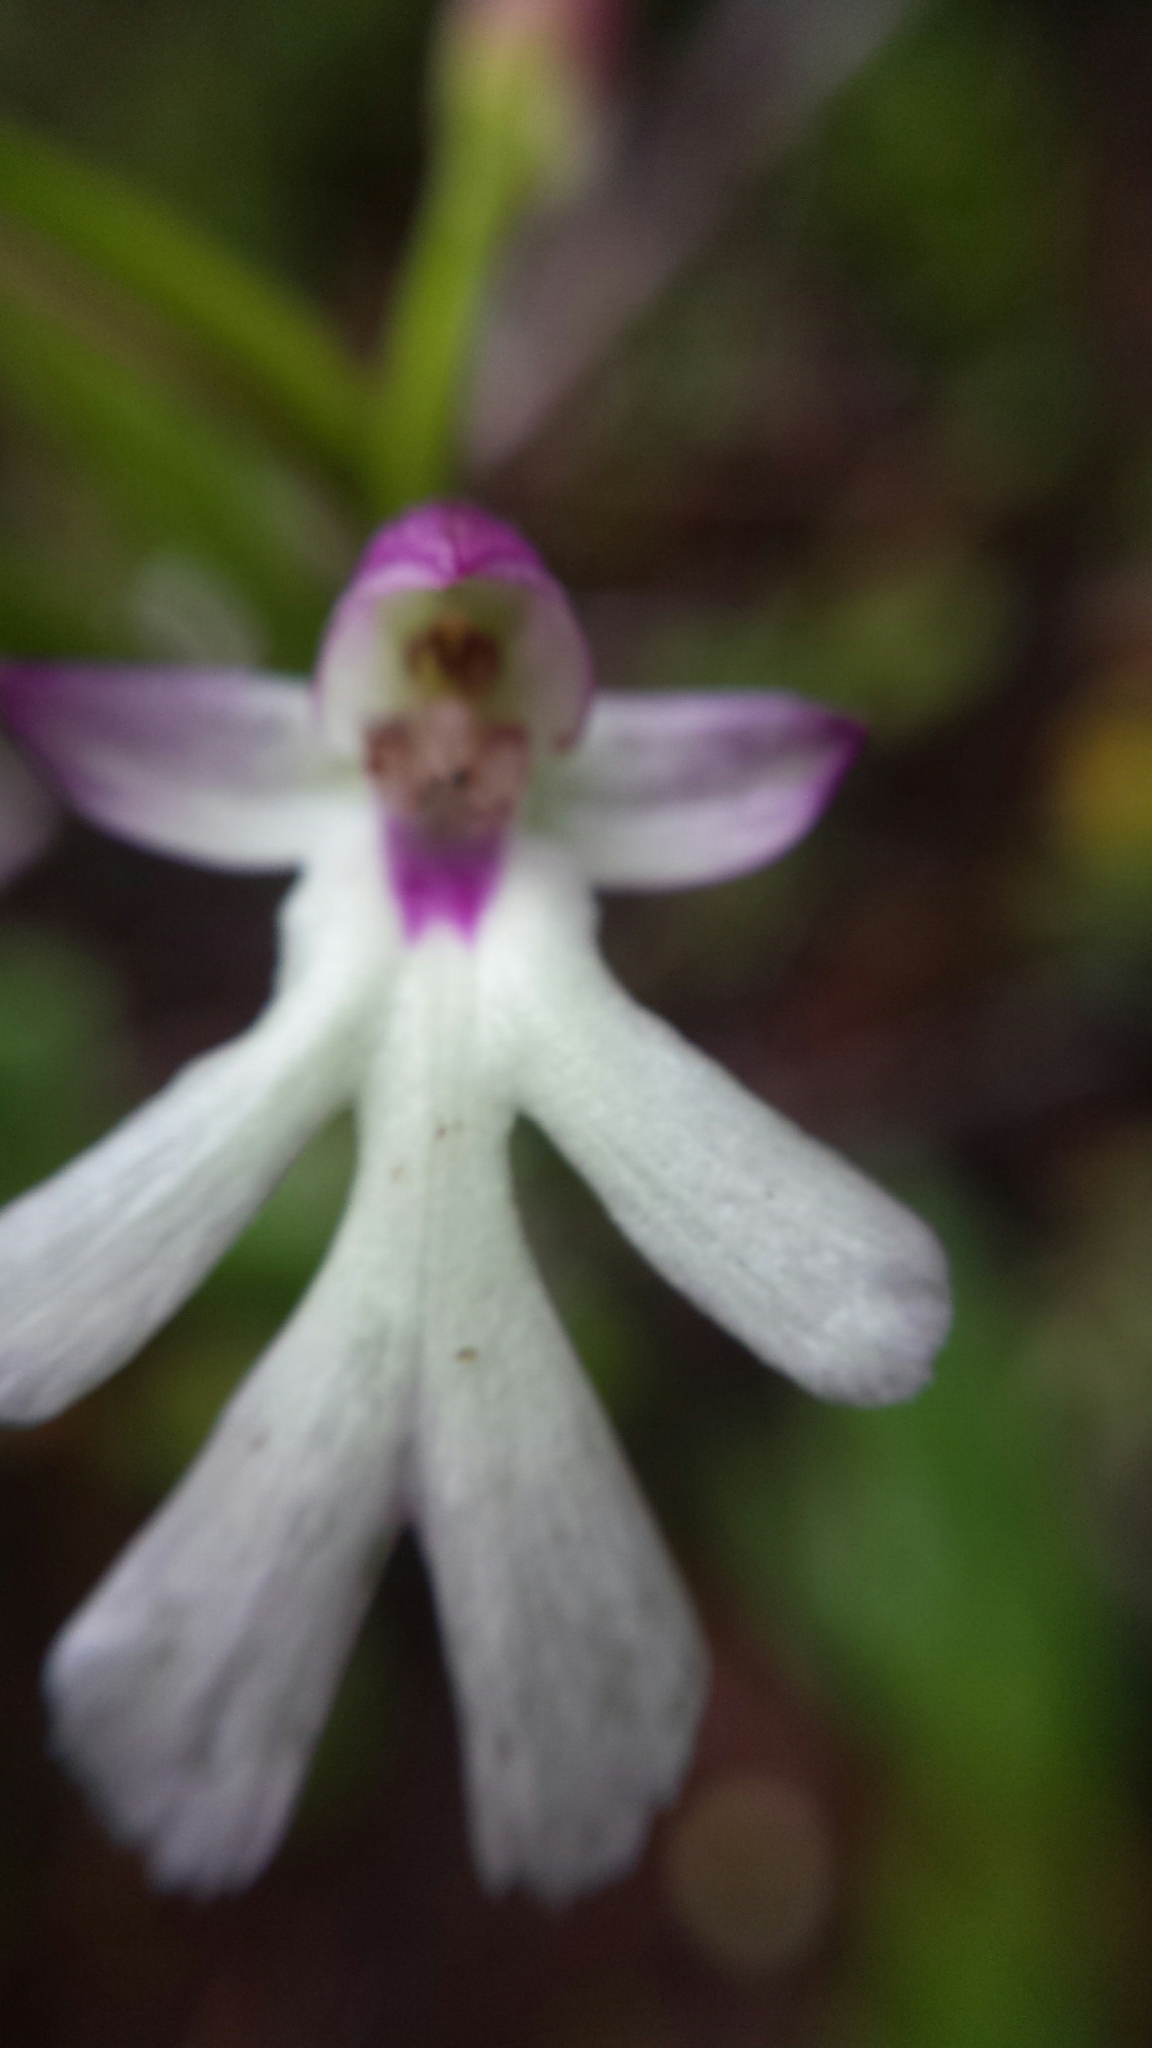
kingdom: Plantae
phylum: Tracheophyta
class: Liliopsida
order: Asparagales
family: Orchidaceae
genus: Cynorkis
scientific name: Cynorkis fastigiata
